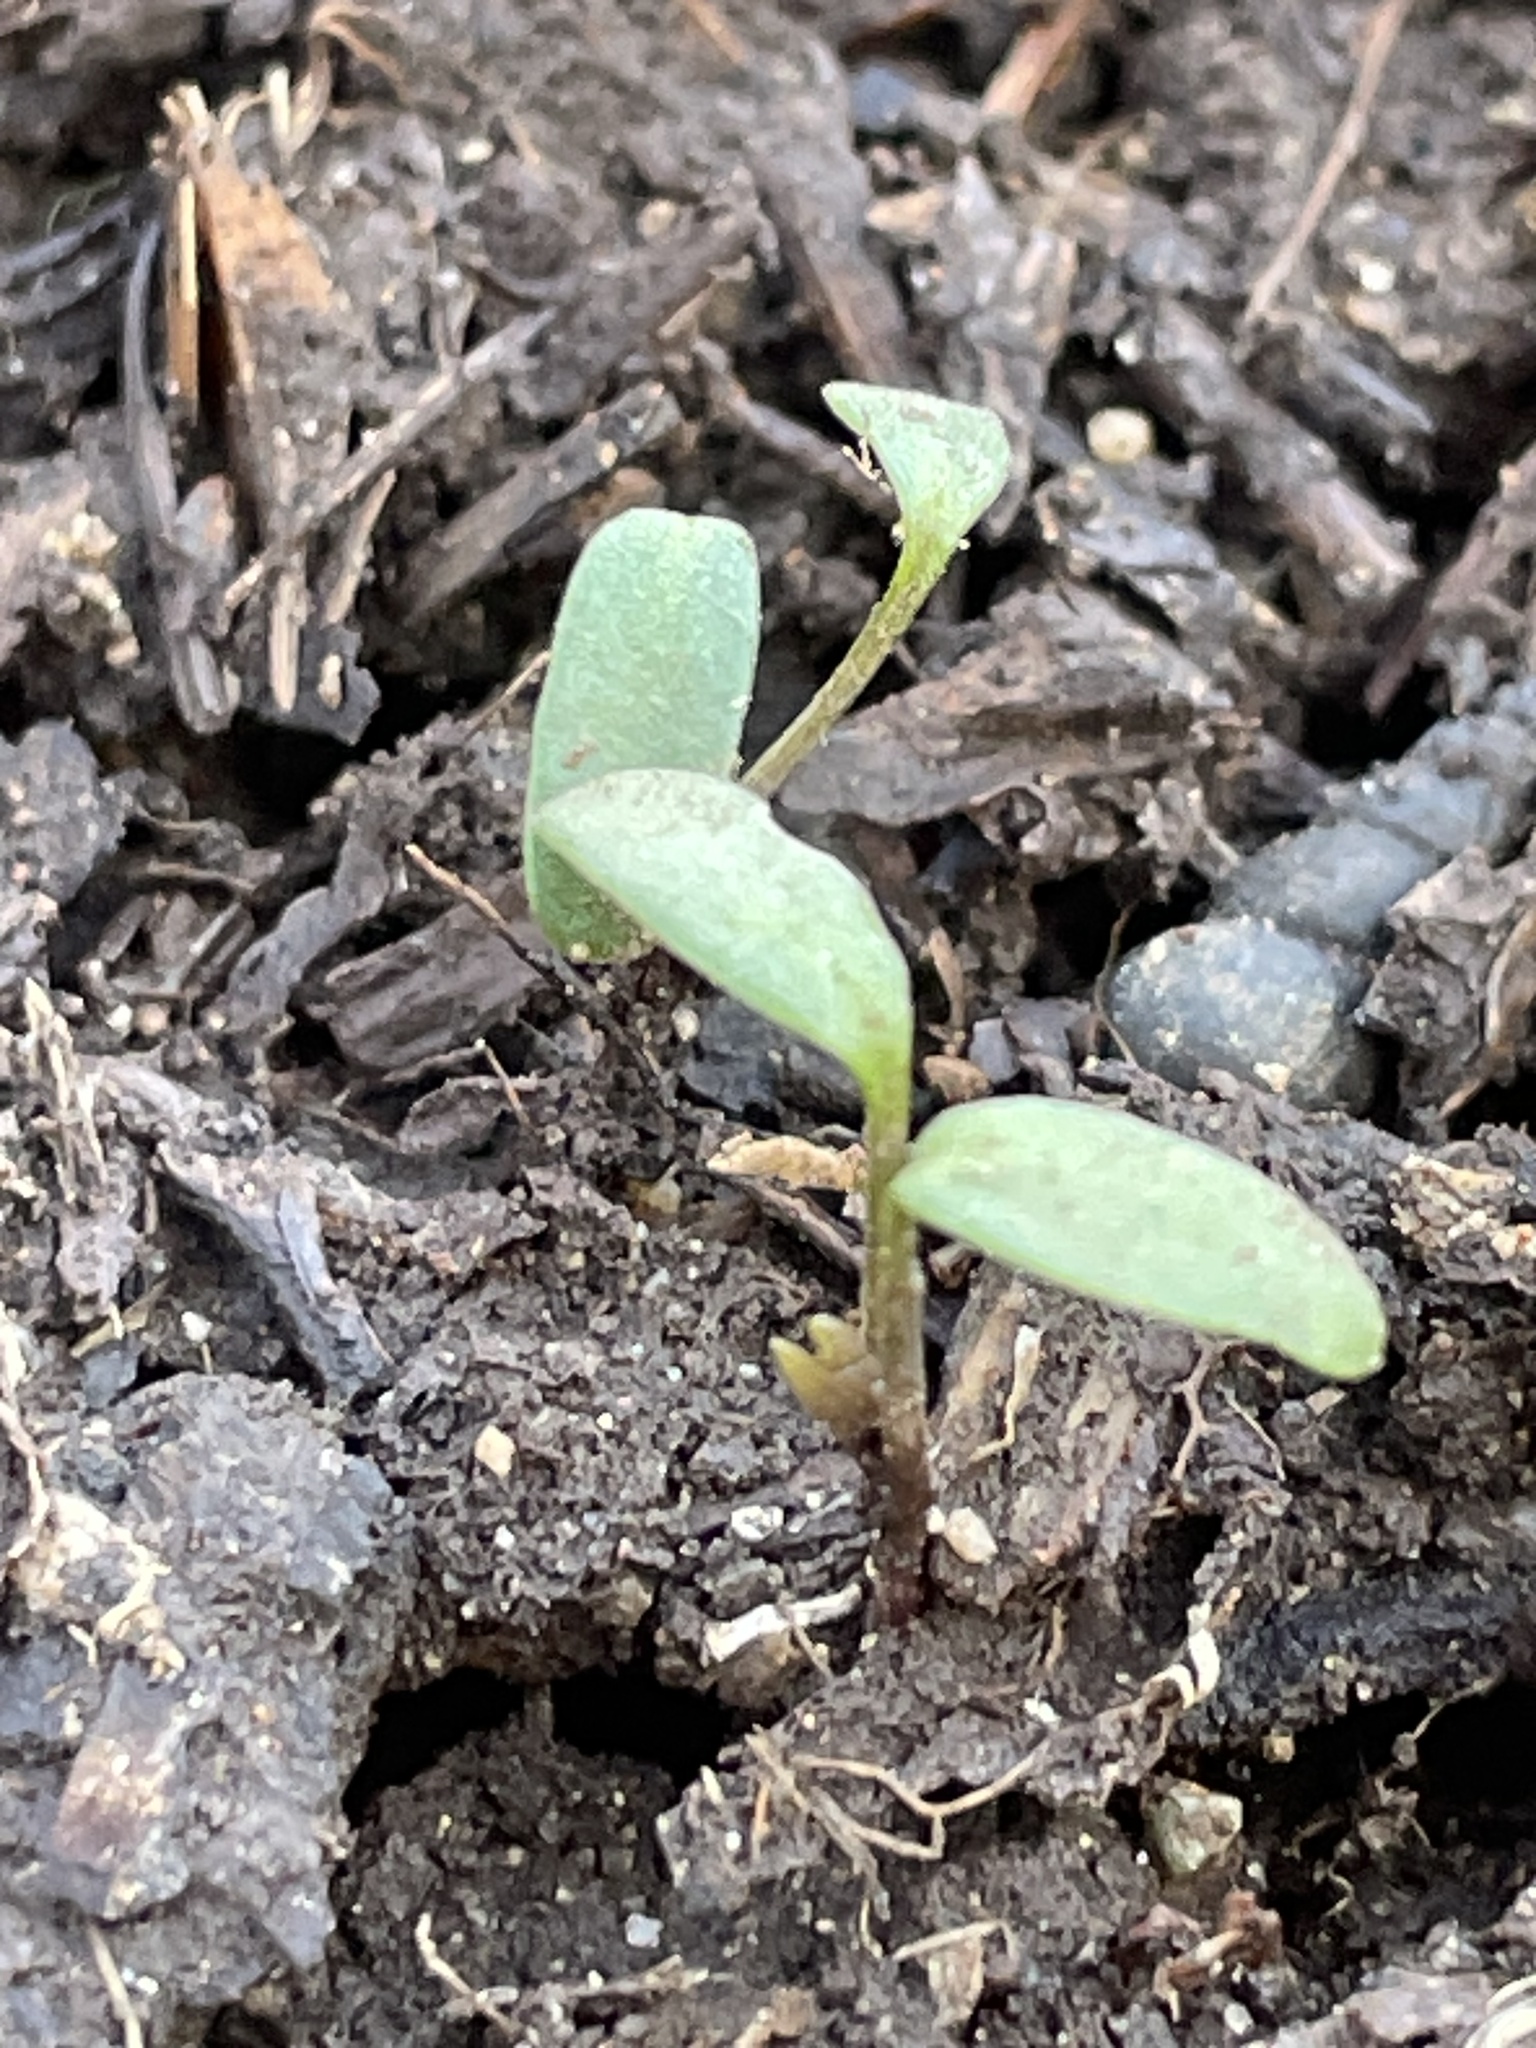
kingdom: Plantae
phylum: Tracheophyta
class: Magnoliopsida
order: Brassicales
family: Brassicaceae
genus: Alliaria
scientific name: Alliaria petiolata
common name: Garlic mustard
